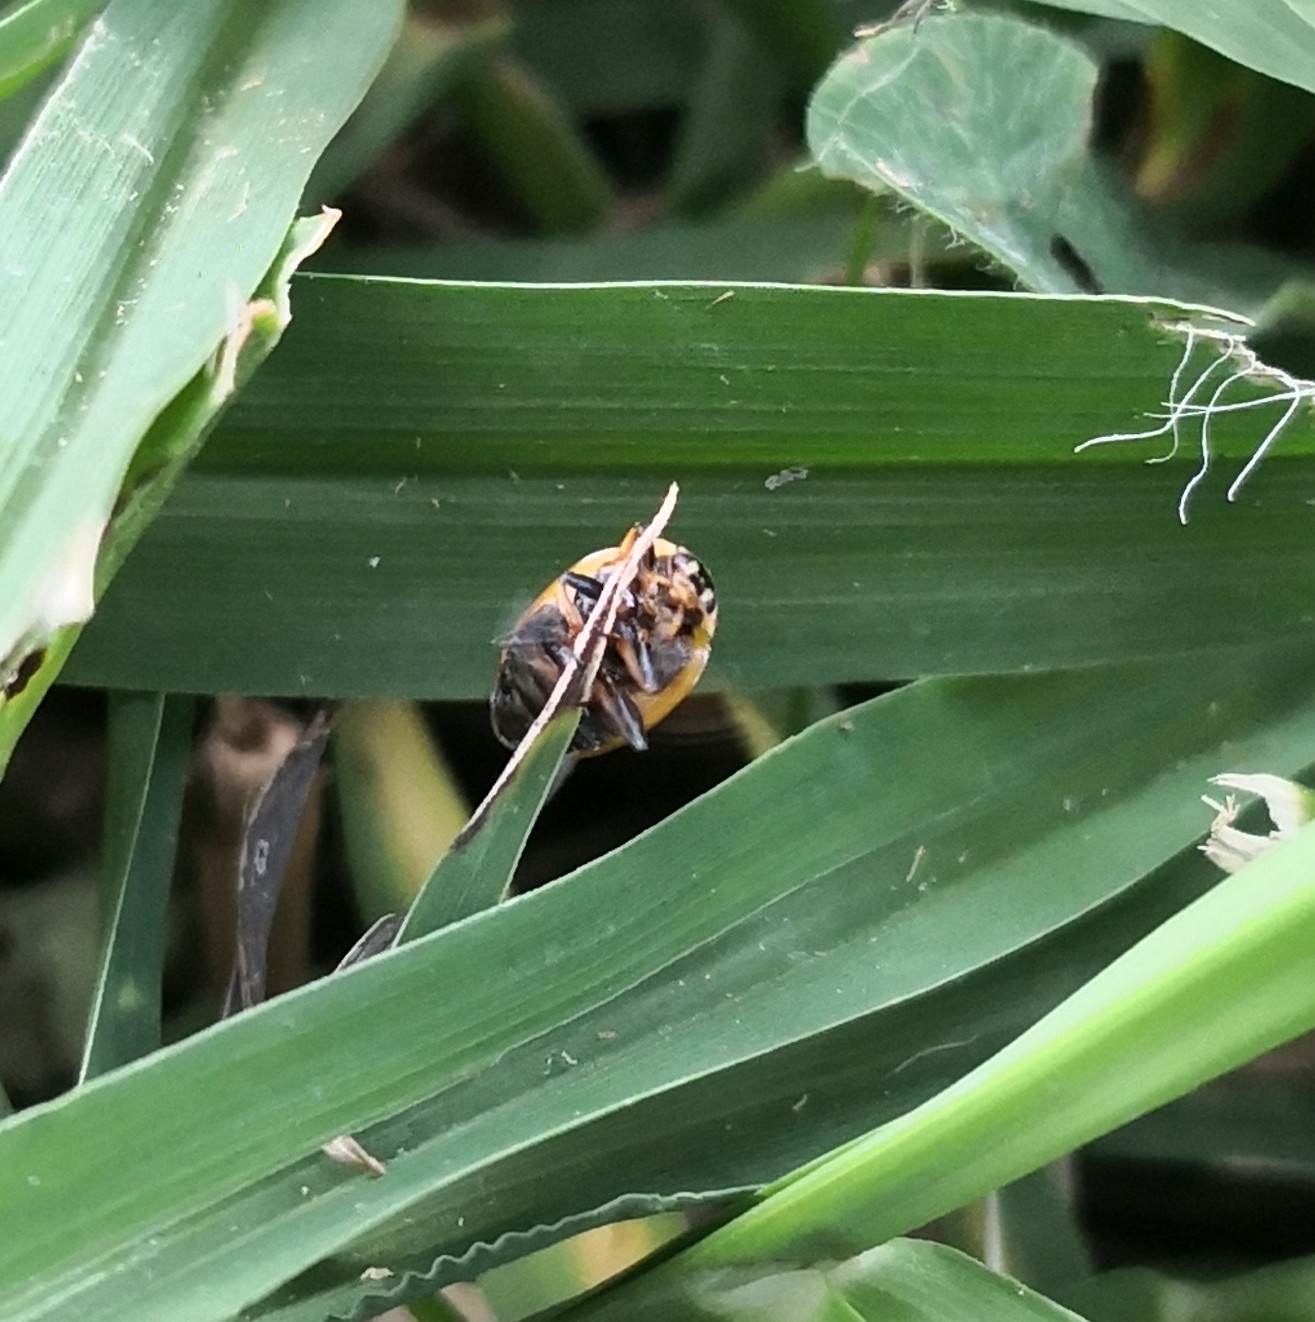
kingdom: Animalia
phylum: Arthropoda
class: Insecta
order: Coleoptera
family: Coccinellidae
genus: Hippodamia
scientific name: Hippodamia variegata
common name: Ladybird beetle
